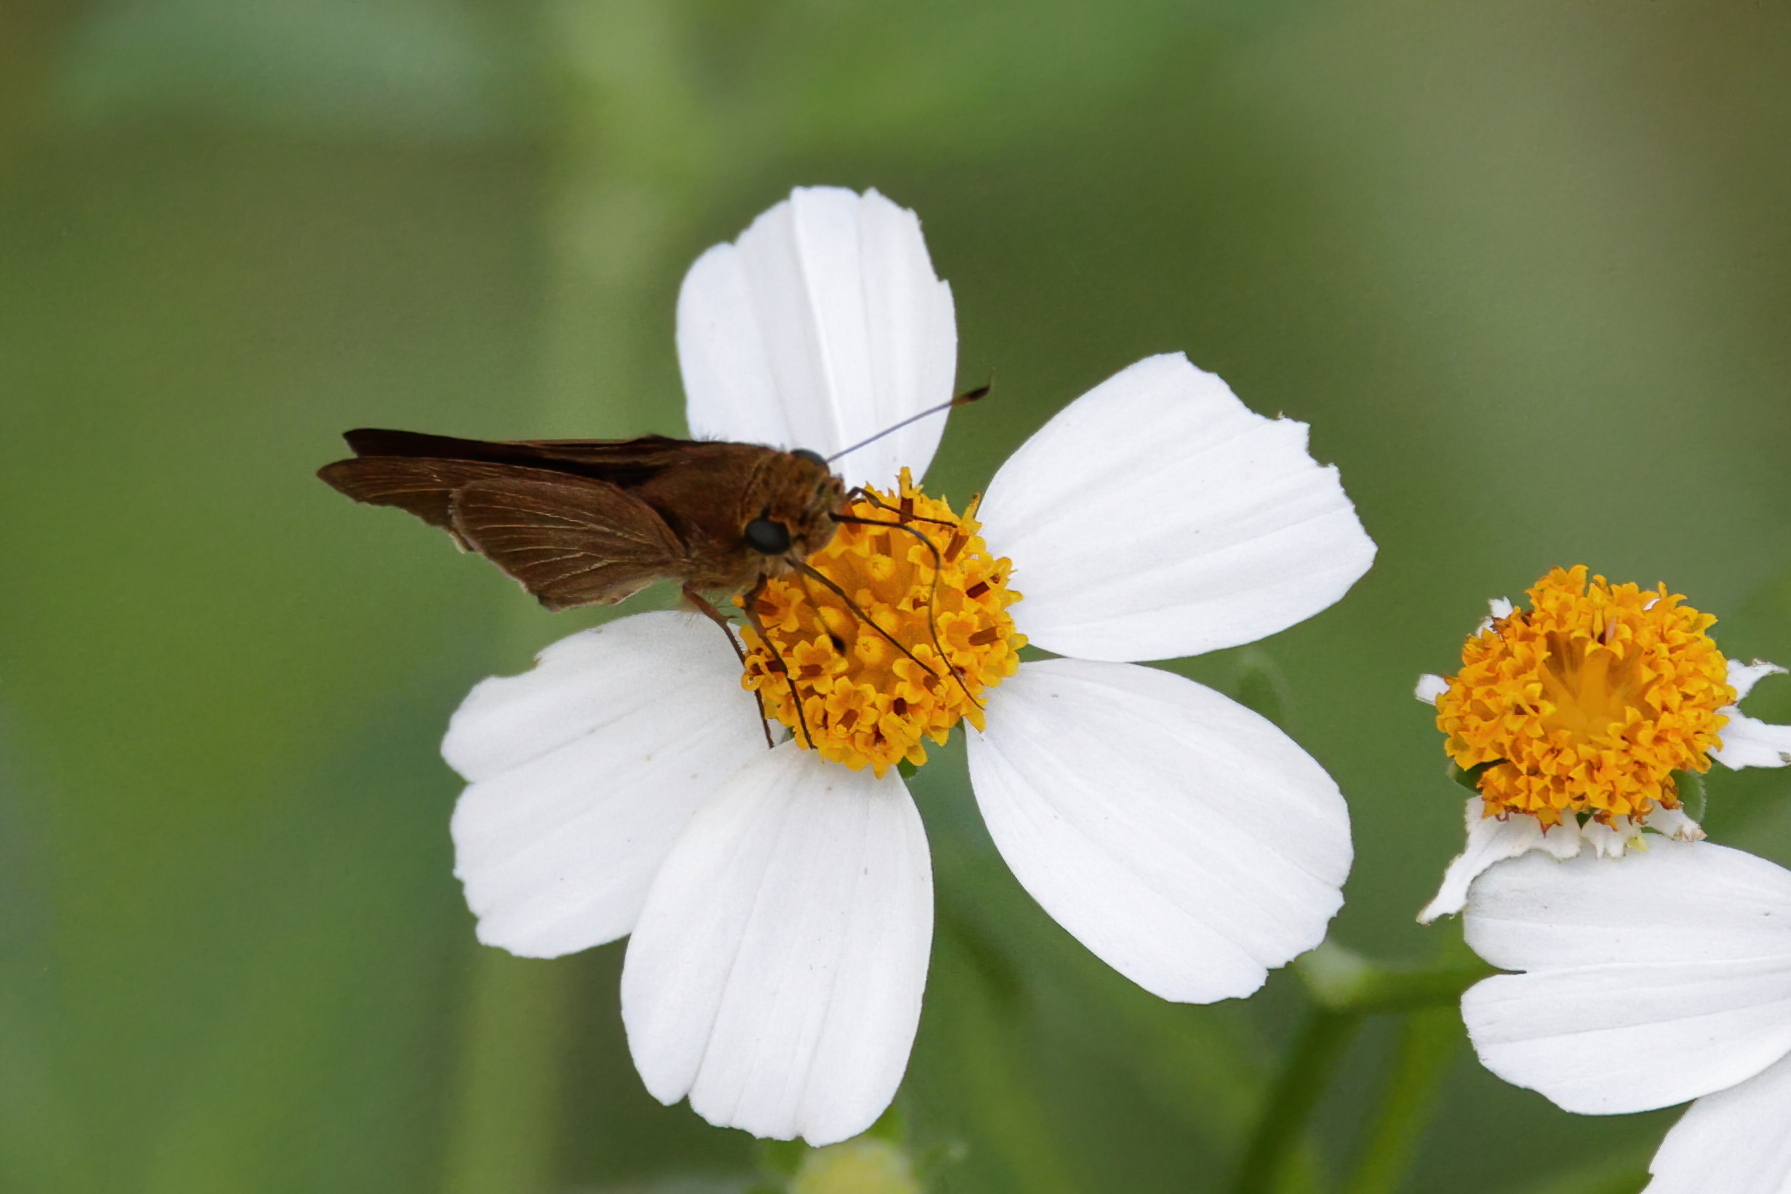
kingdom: Animalia
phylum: Arthropoda
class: Insecta
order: Lepidoptera
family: Hesperiidae
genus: Panoquina
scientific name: Panoquina ocola
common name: Ocola skipper
